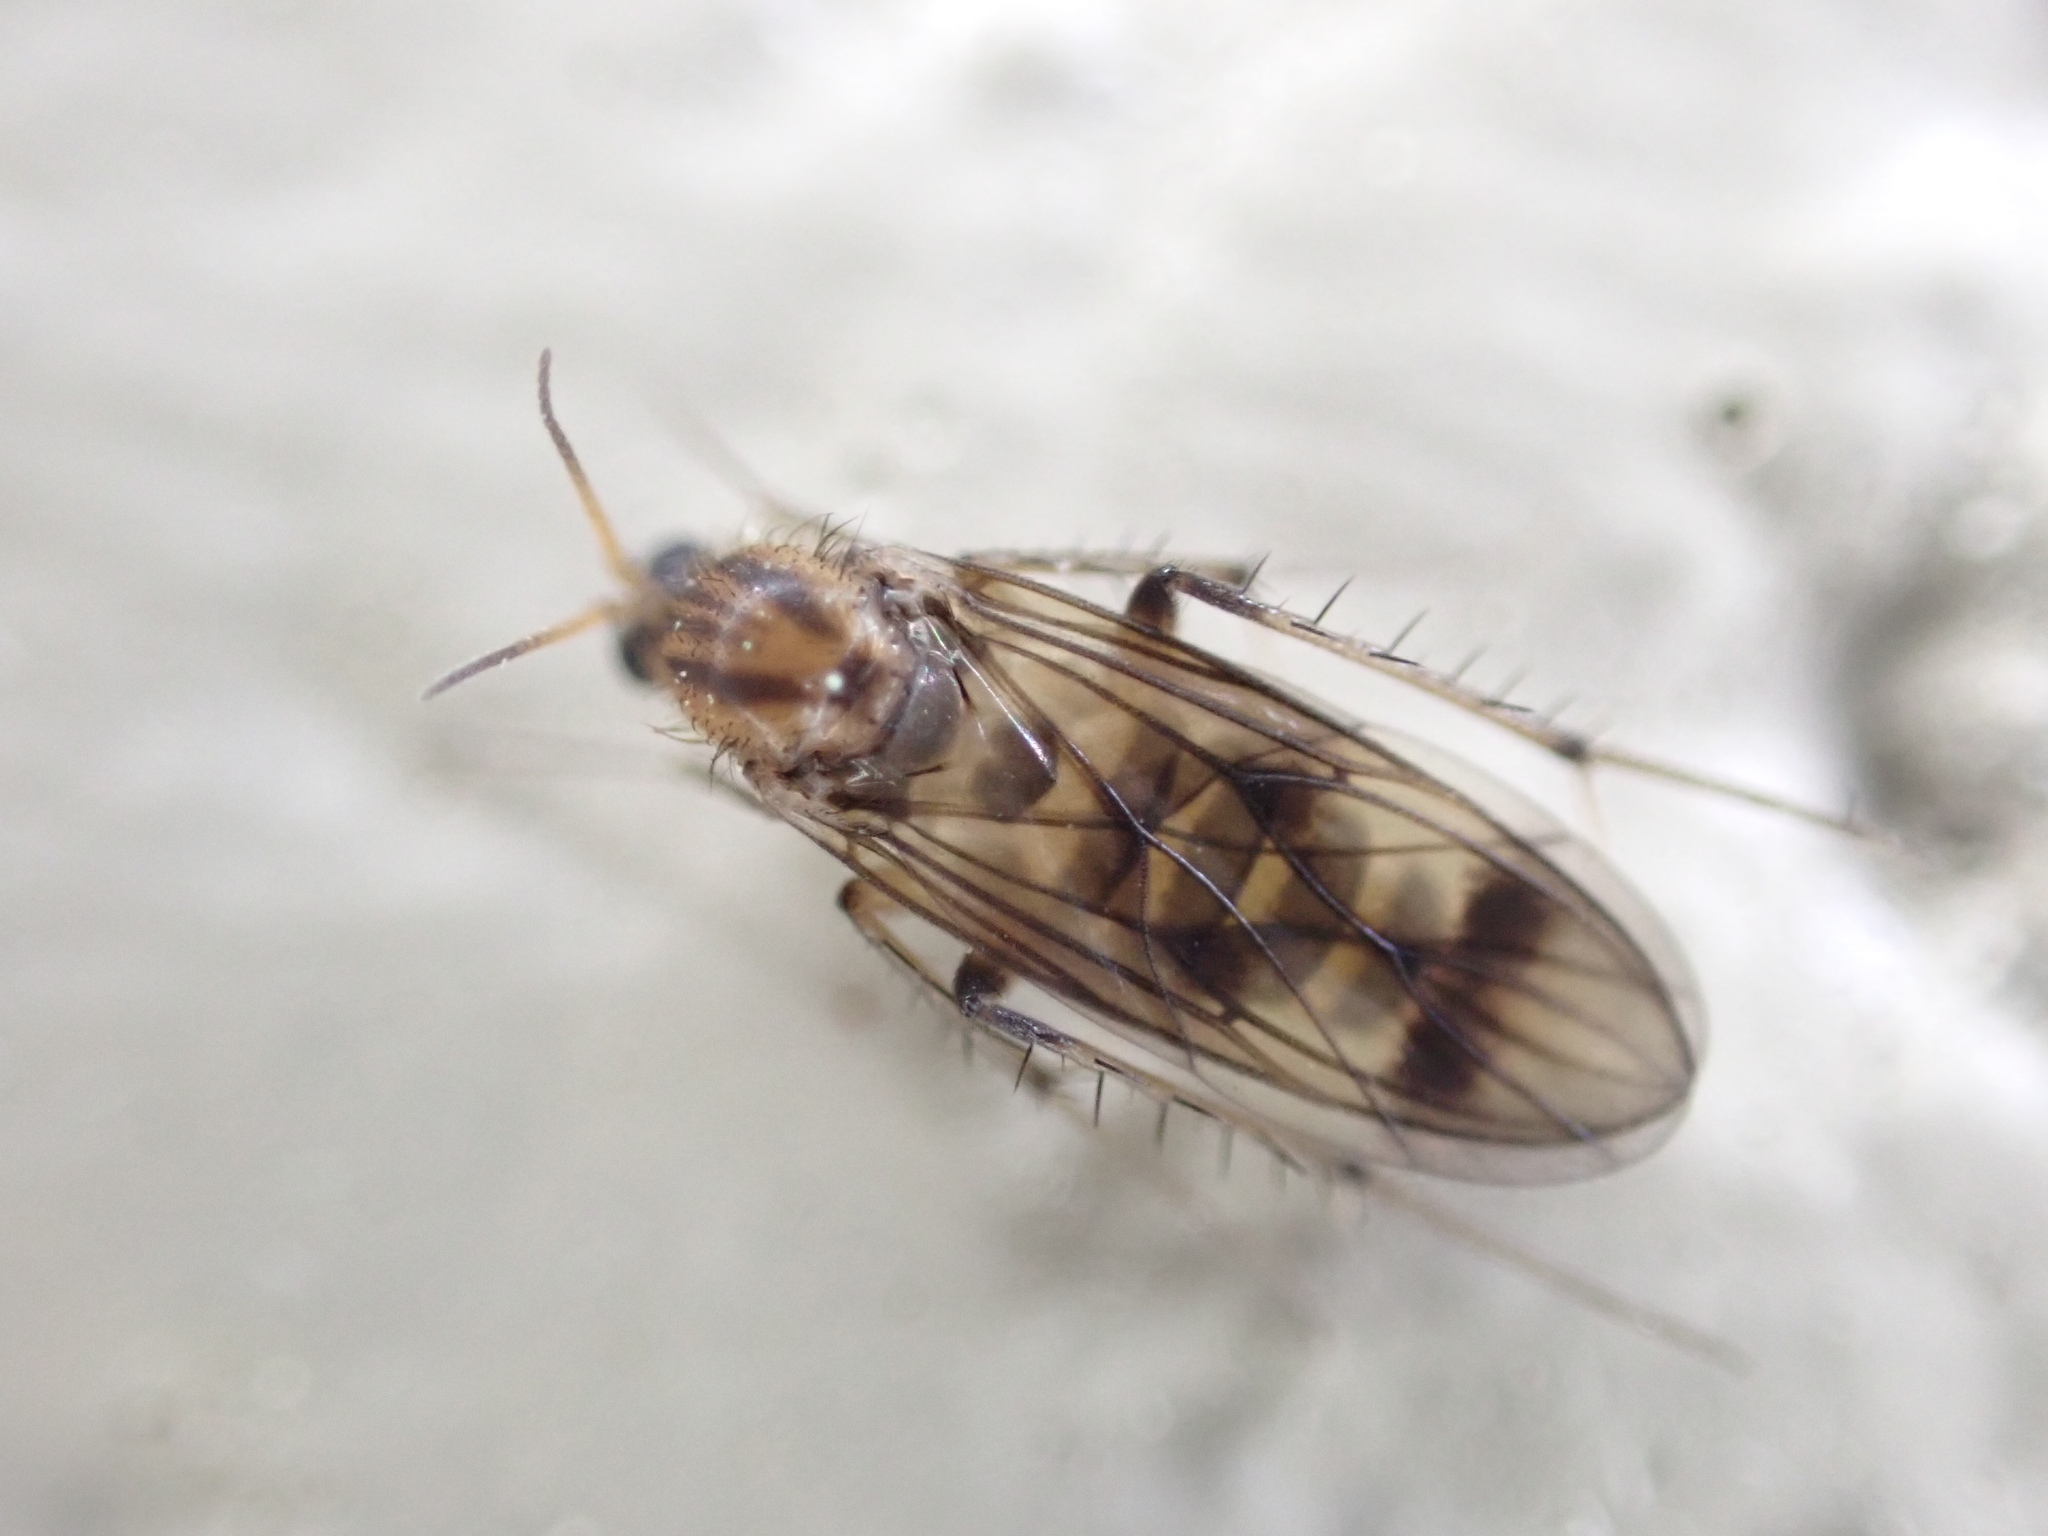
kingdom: Animalia
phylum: Arthropoda
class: Insecta
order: Diptera
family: Mycetophilidae
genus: Anomalomyia
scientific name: Anomalomyia guttata
